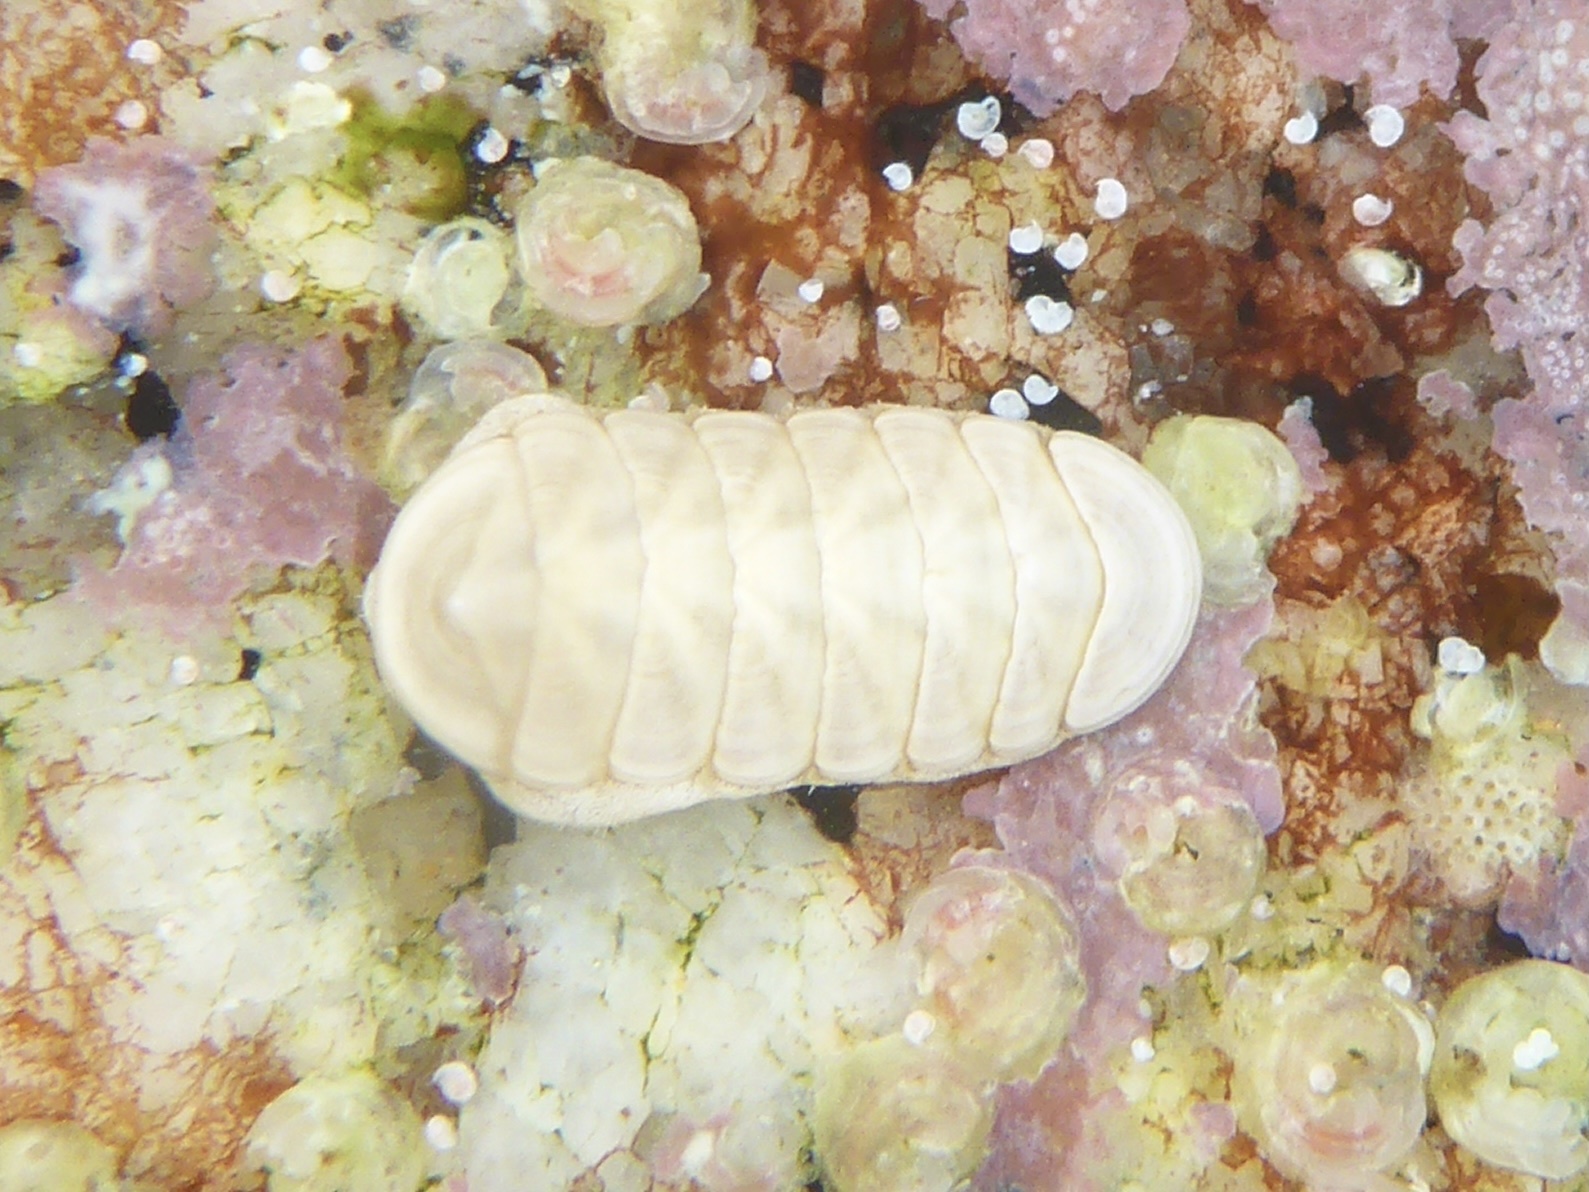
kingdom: Animalia
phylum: Mollusca
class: Polyplacophora
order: Lepidopleurida
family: Leptochitonidae
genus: Leptochiton
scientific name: Leptochiton rugatus
